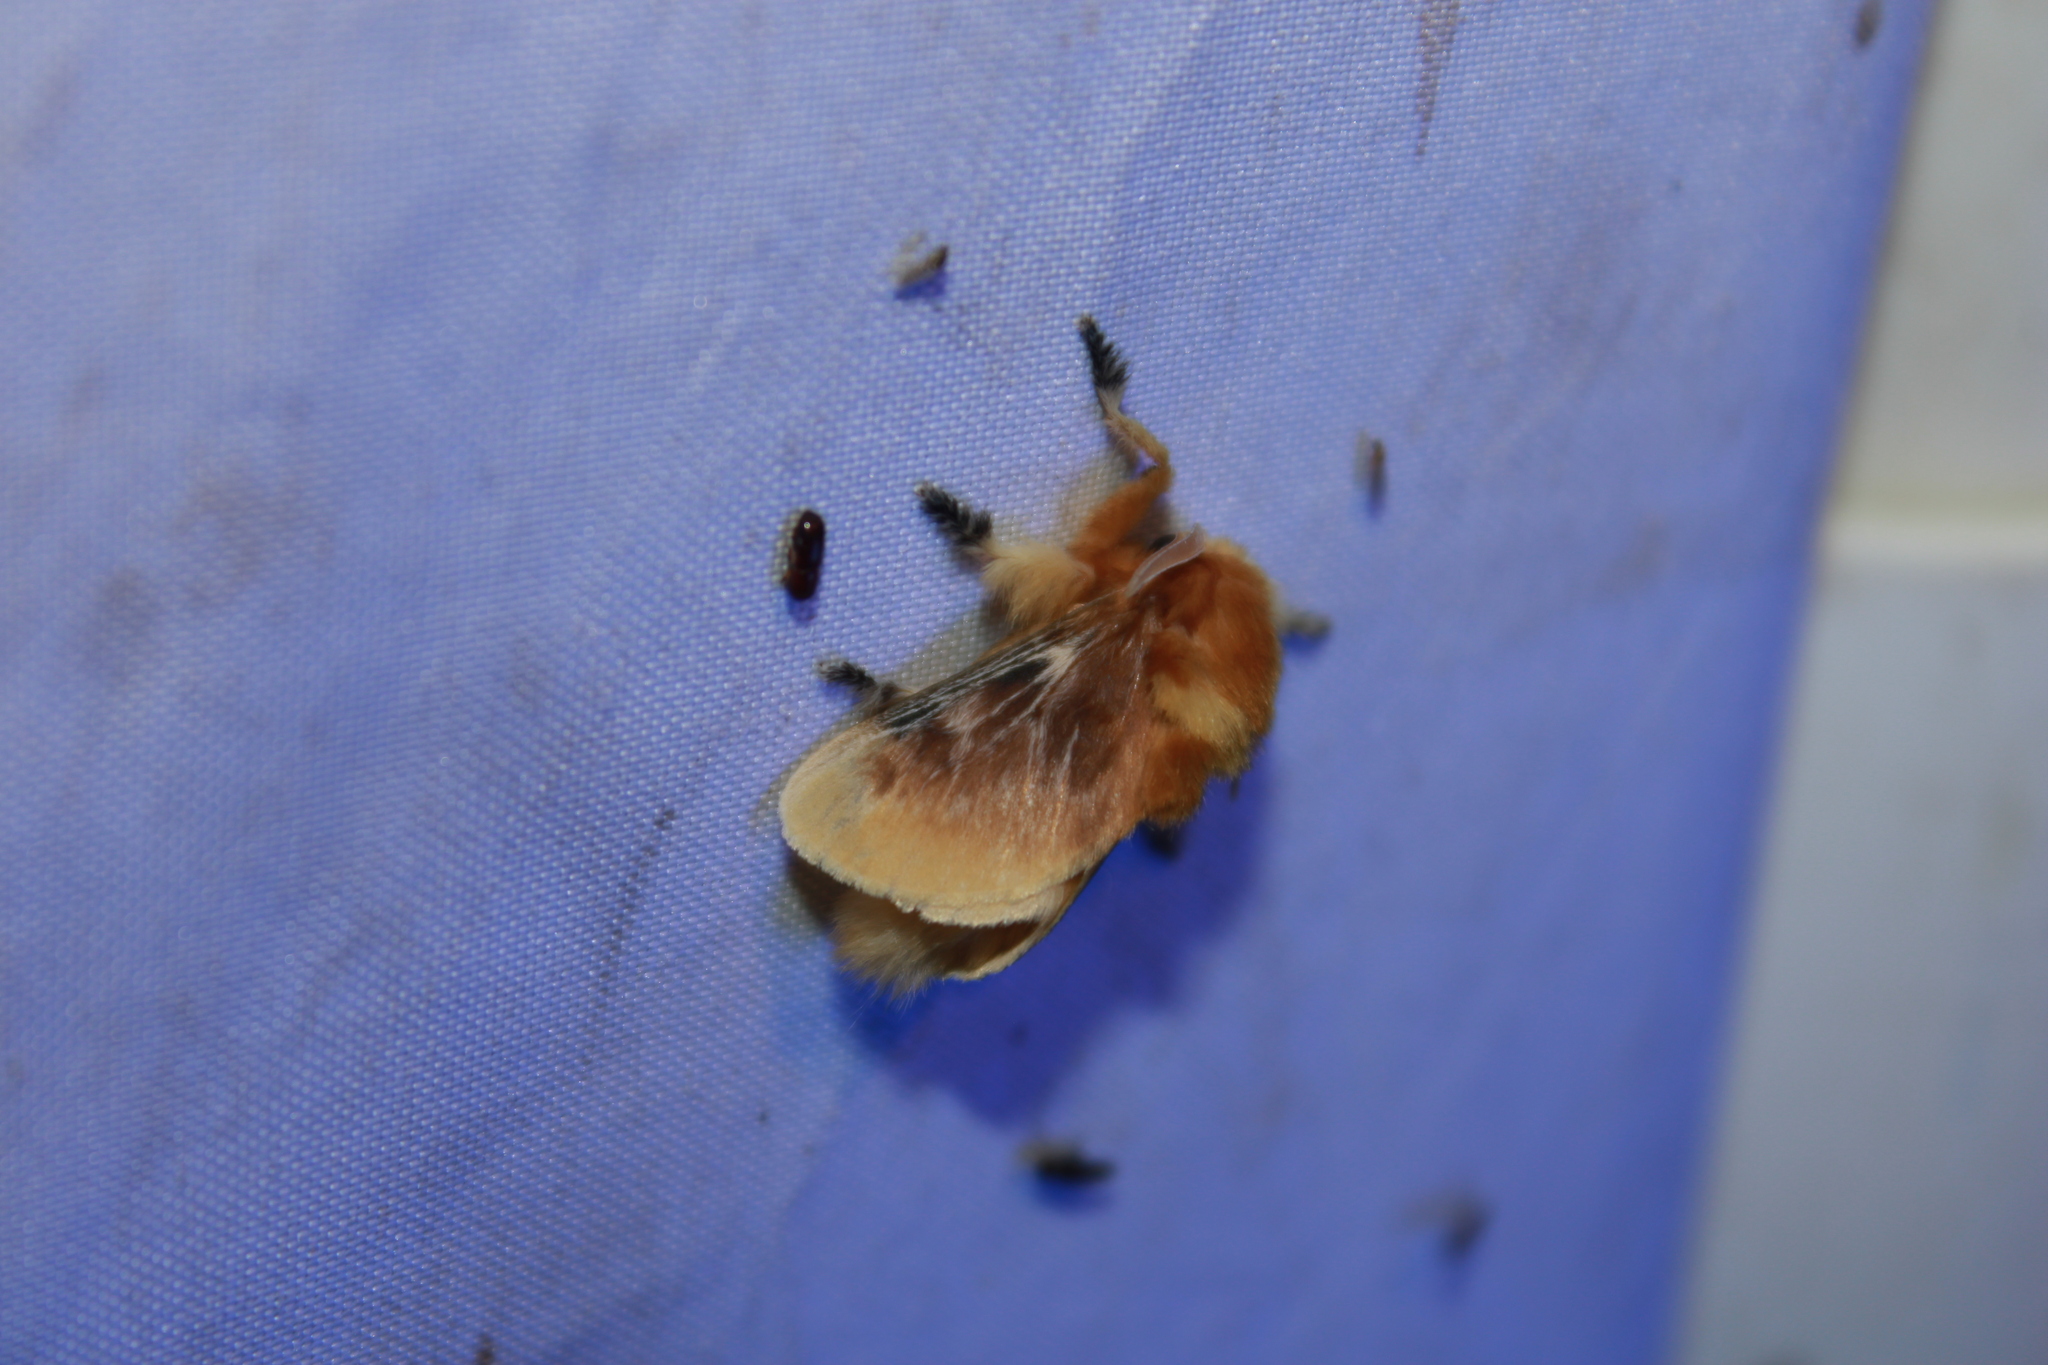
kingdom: Animalia
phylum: Arthropoda
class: Insecta
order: Lepidoptera
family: Megalopygidae
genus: Megalopyge
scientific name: Megalopyge opercularis
